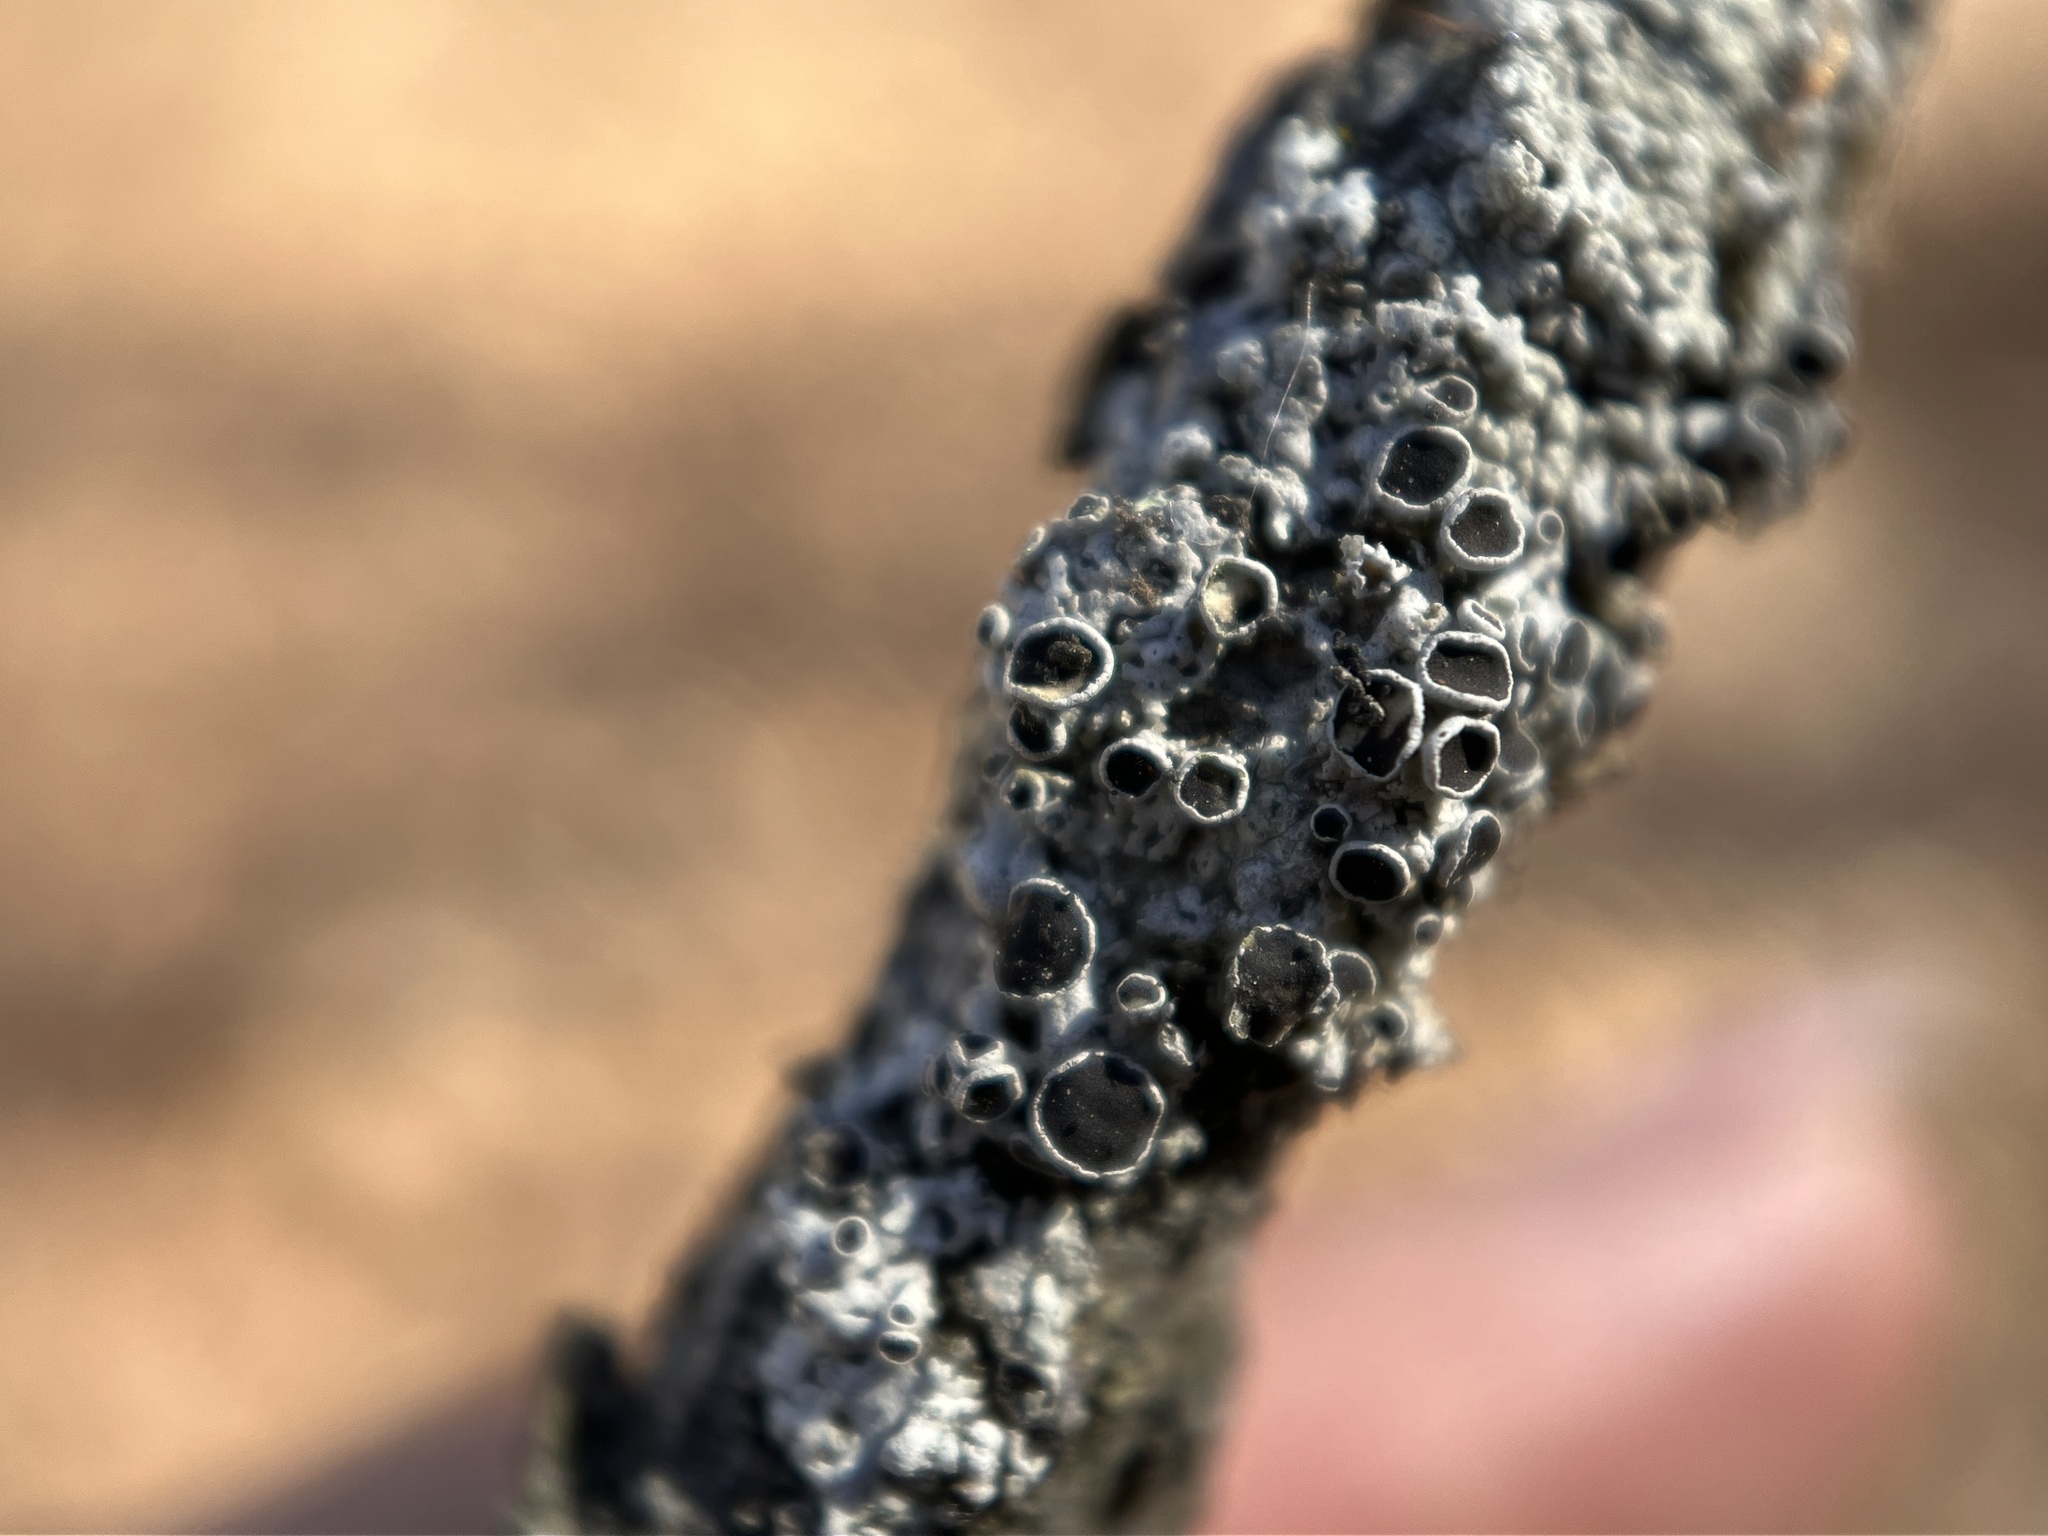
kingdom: Fungi
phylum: Ascomycota
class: Lecanoromycetes
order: Caliciales
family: Physciaceae
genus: Physcia
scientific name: Physcia stellaris
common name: Star rosette lichen
